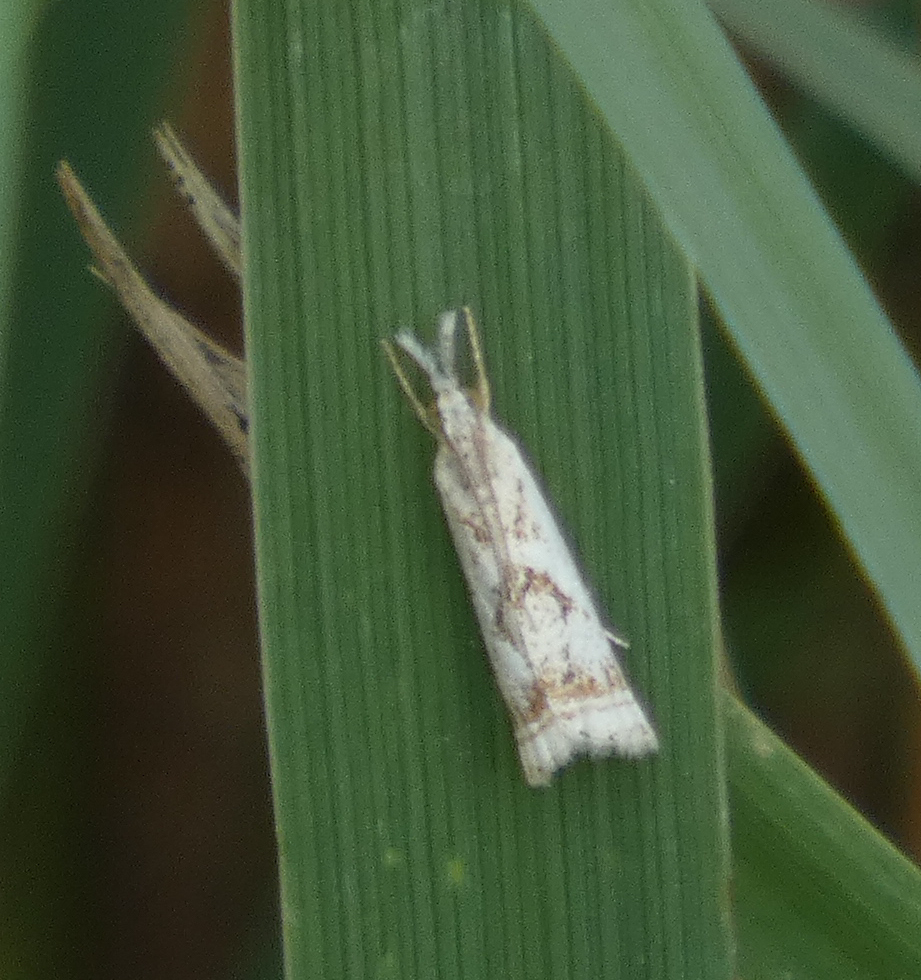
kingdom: Animalia
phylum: Arthropoda
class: Insecta
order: Lepidoptera
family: Crambidae
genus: Microcrambus
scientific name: Microcrambus elegans
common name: Elegant grass-veneer
